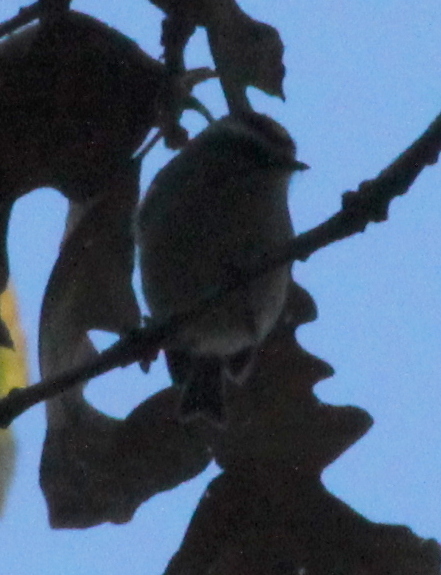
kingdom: Animalia
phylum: Chordata
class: Aves
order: Passeriformes
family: Regulidae
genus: Regulus
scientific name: Regulus satrapa
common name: Golden-crowned kinglet
